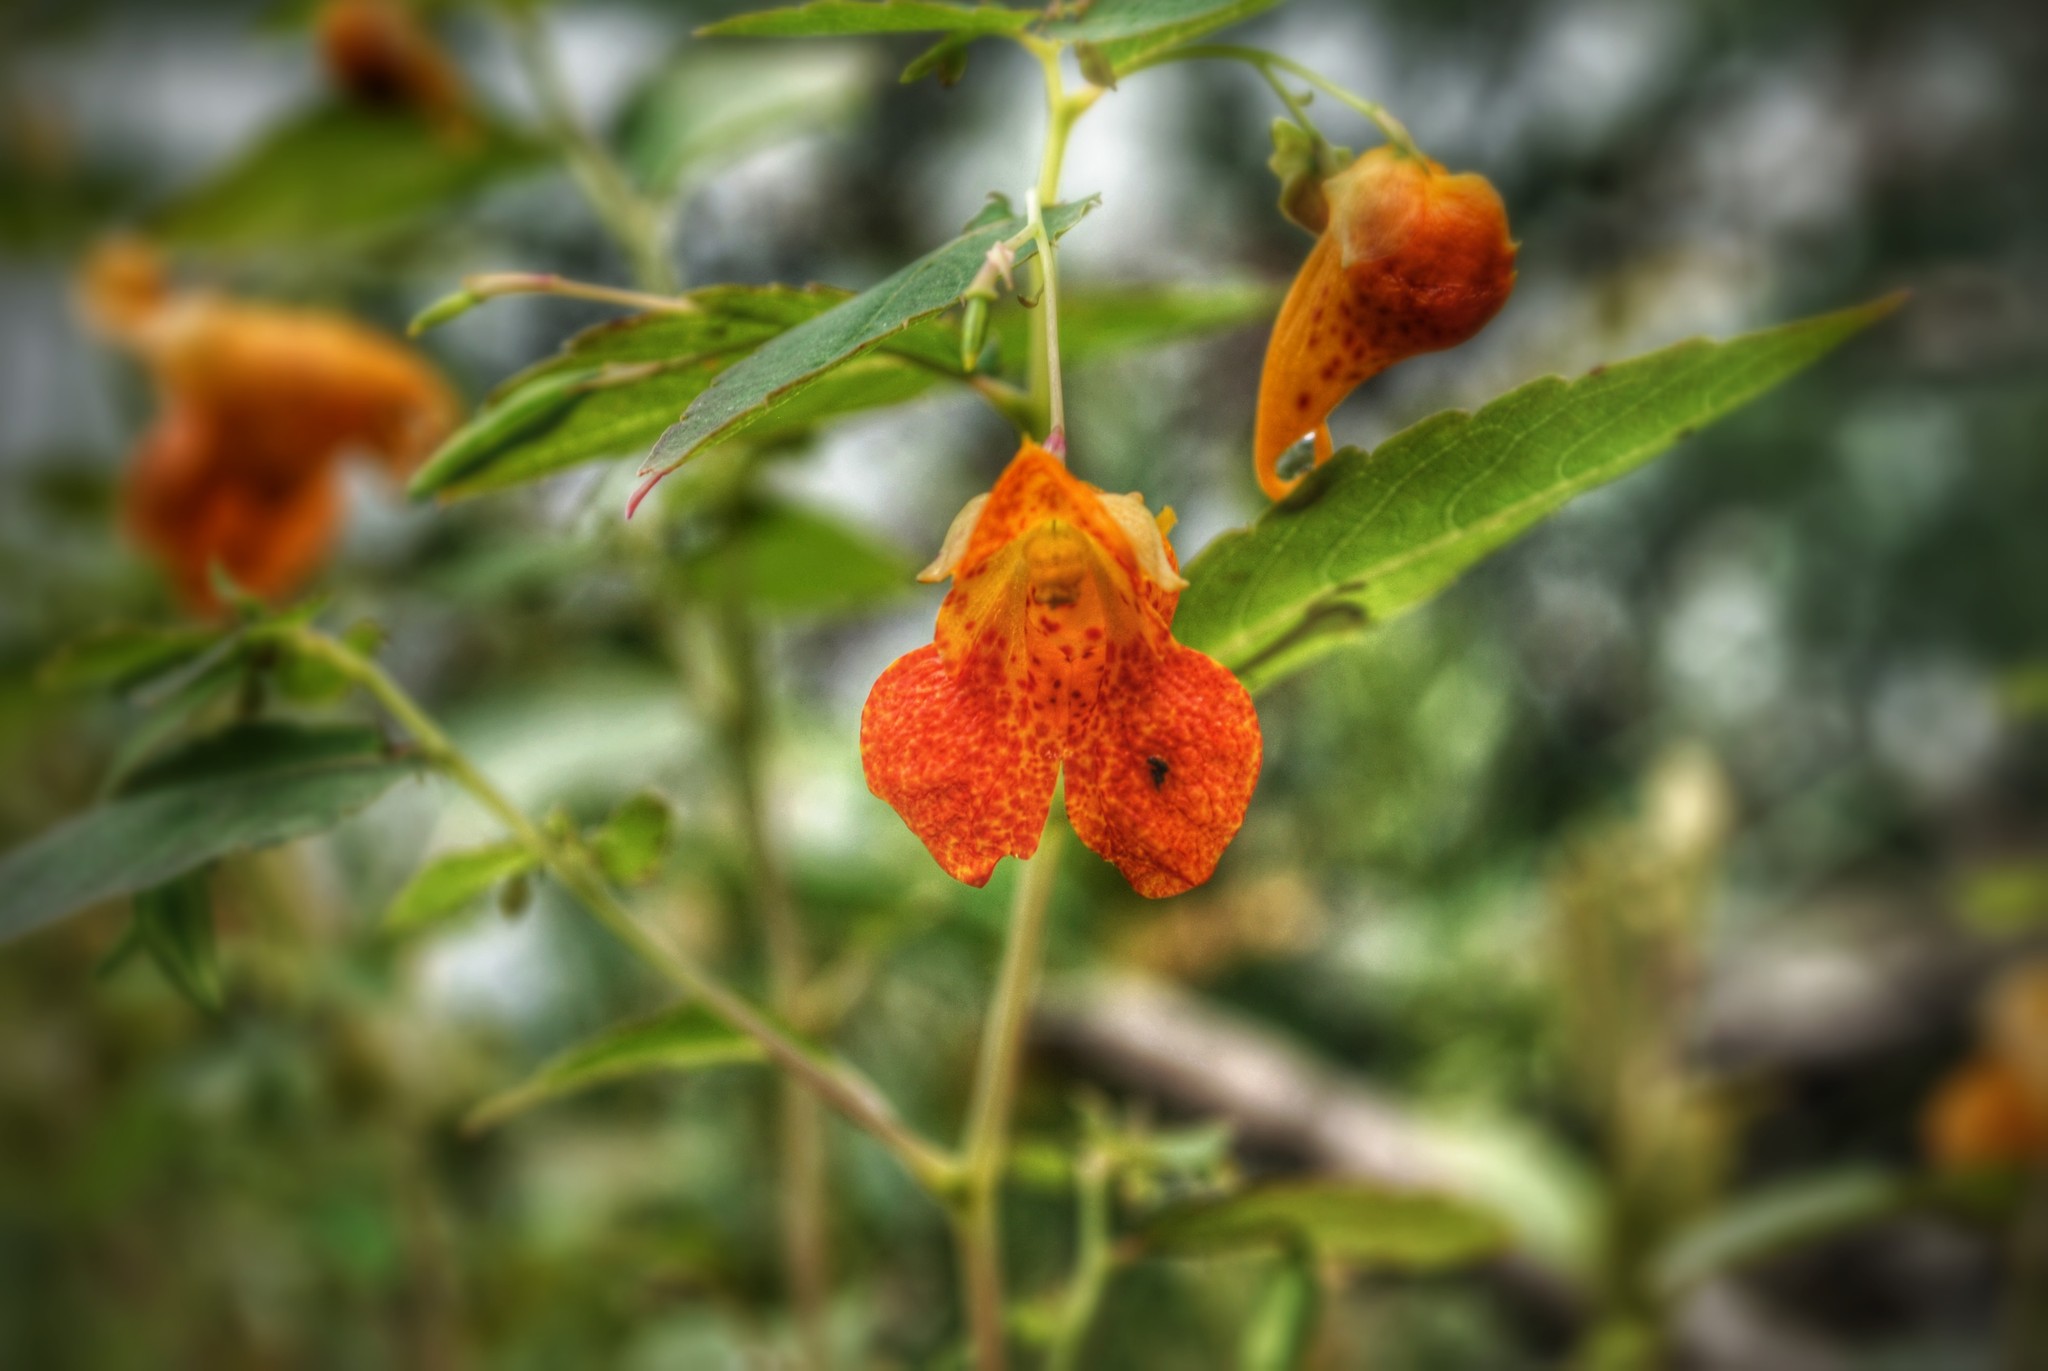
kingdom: Plantae
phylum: Tracheophyta
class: Magnoliopsida
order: Ericales
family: Balsaminaceae
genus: Impatiens
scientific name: Impatiens capensis
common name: Orange balsam
